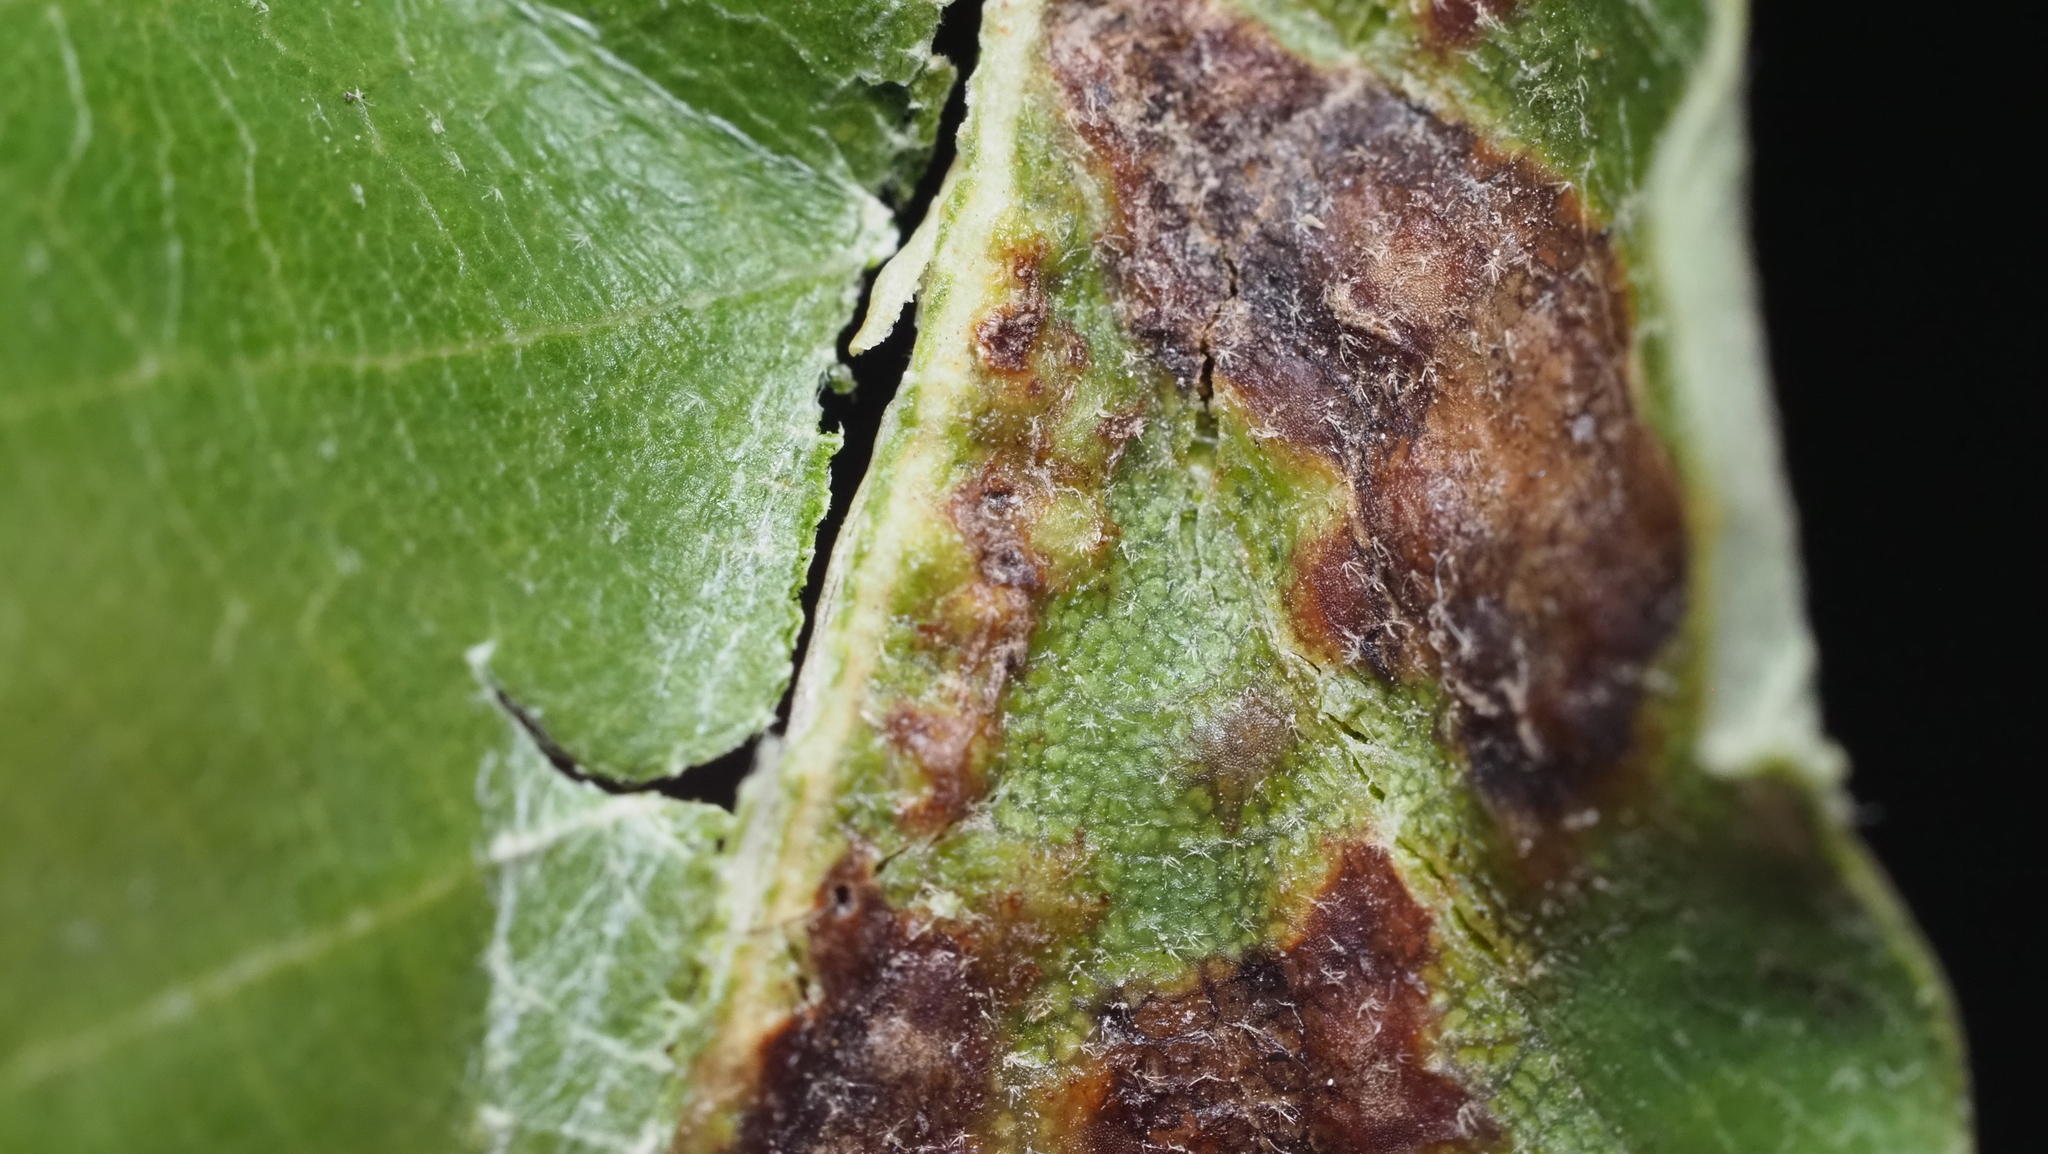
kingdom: Animalia
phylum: Arthropoda
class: Insecta
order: Hymenoptera
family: Cynipidae
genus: Neuroterus
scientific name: Neuroterus niger
